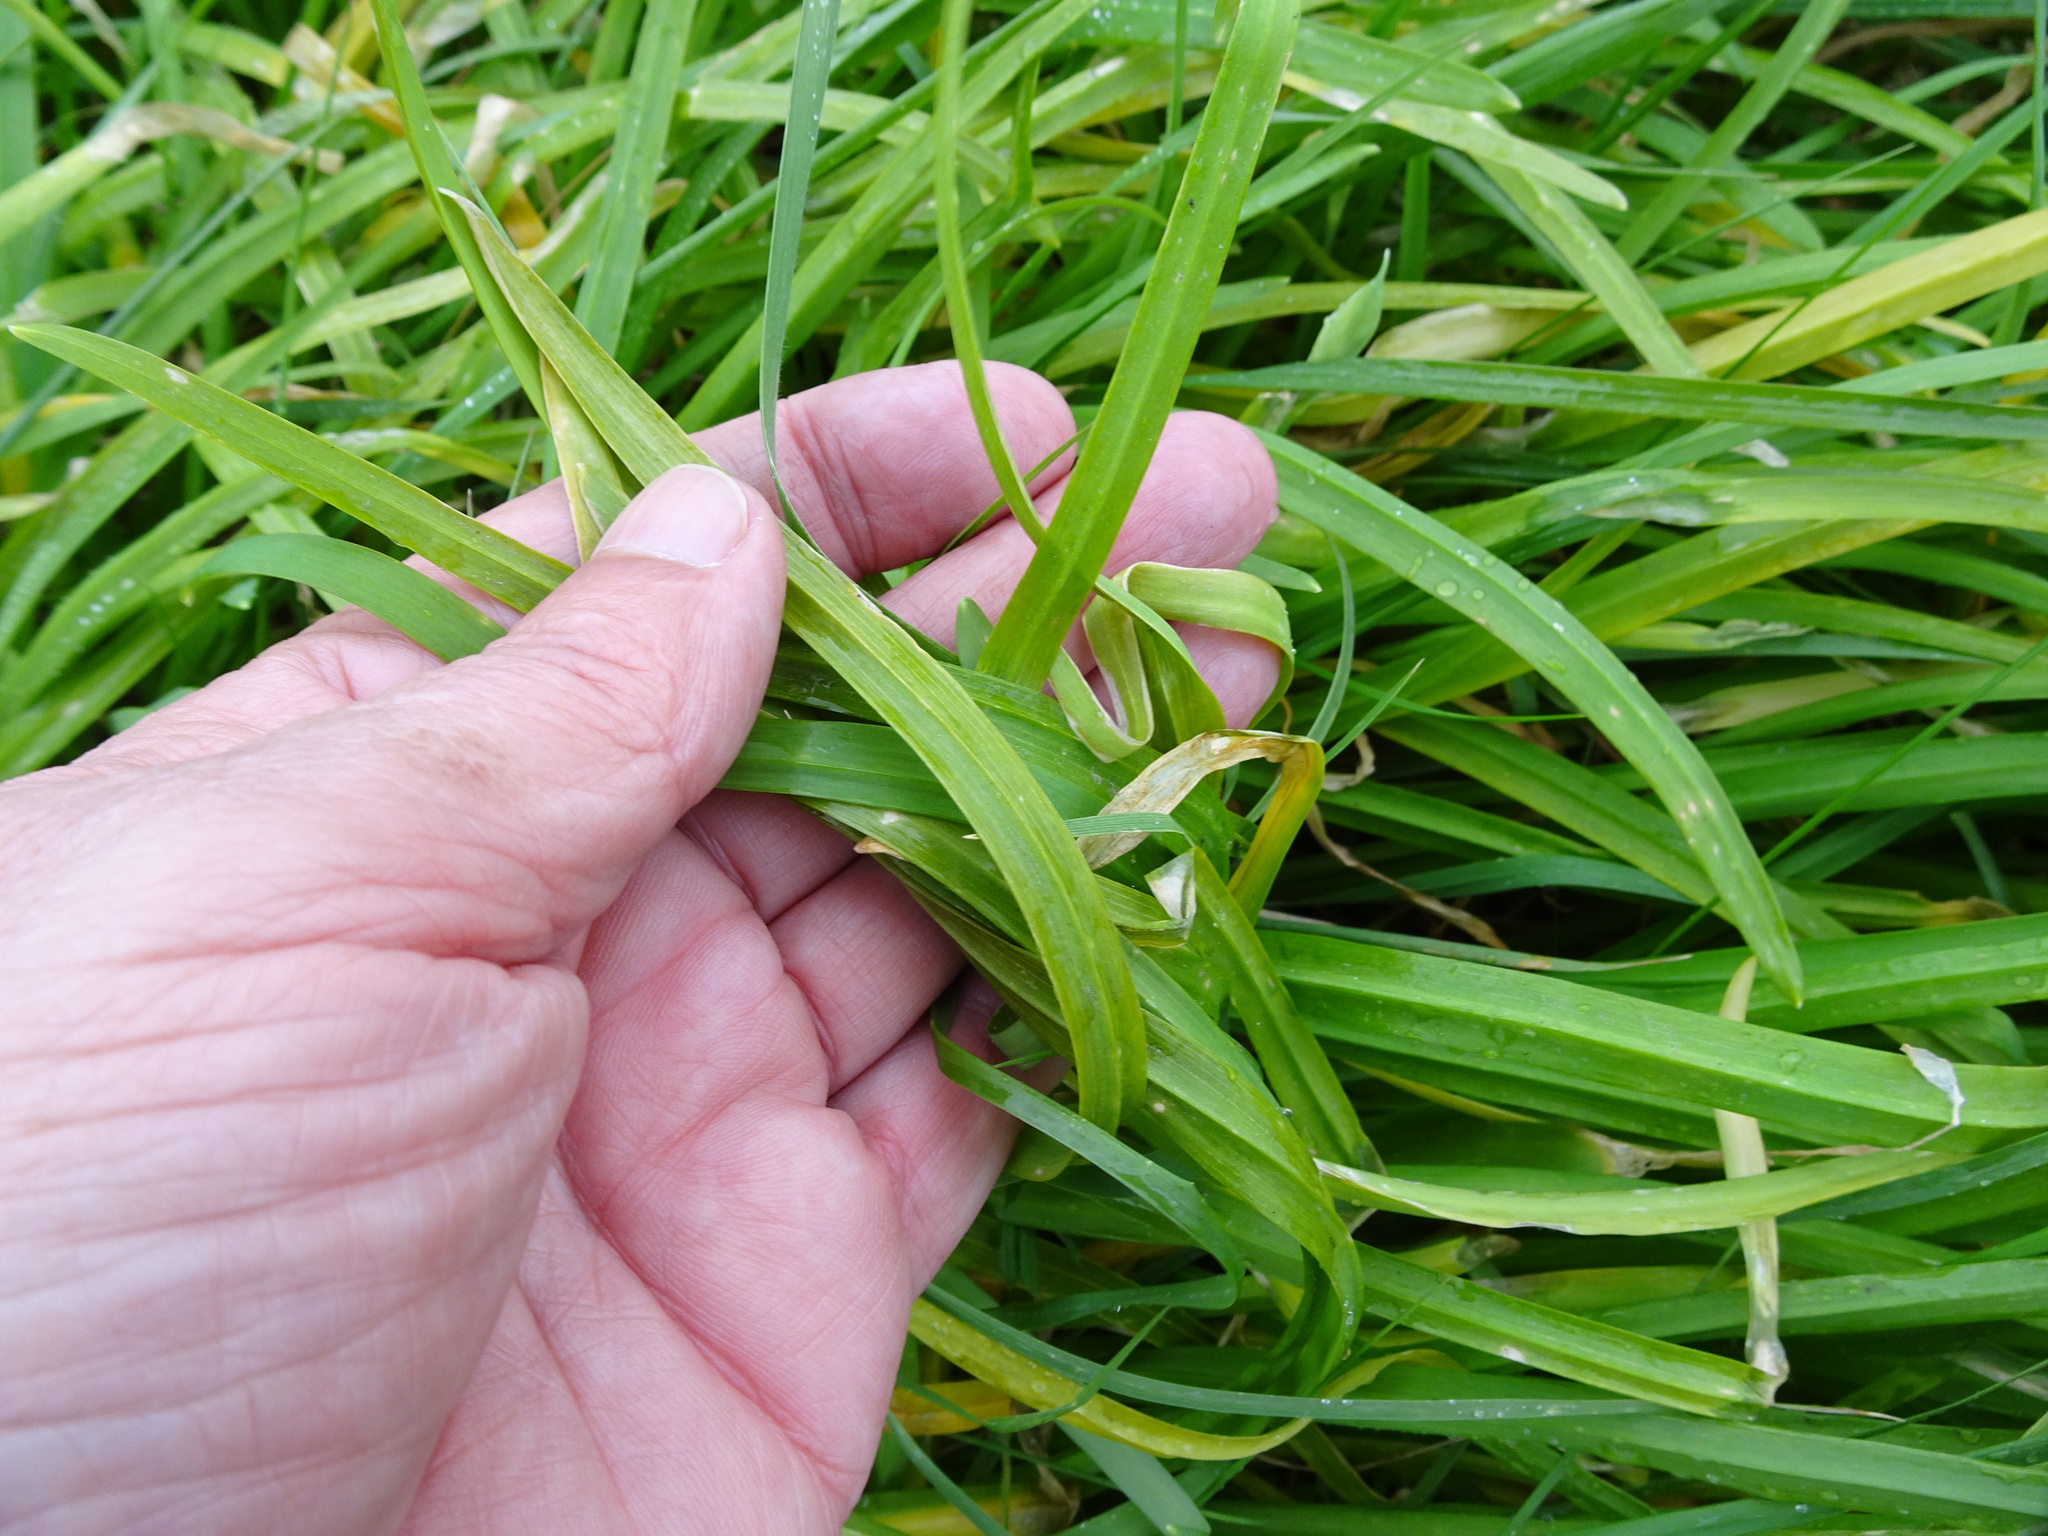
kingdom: Plantae
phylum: Tracheophyta
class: Liliopsida
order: Asparagales
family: Amaryllidaceae
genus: Allium
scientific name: Allium triquetrum
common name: Three-cornered garlic
